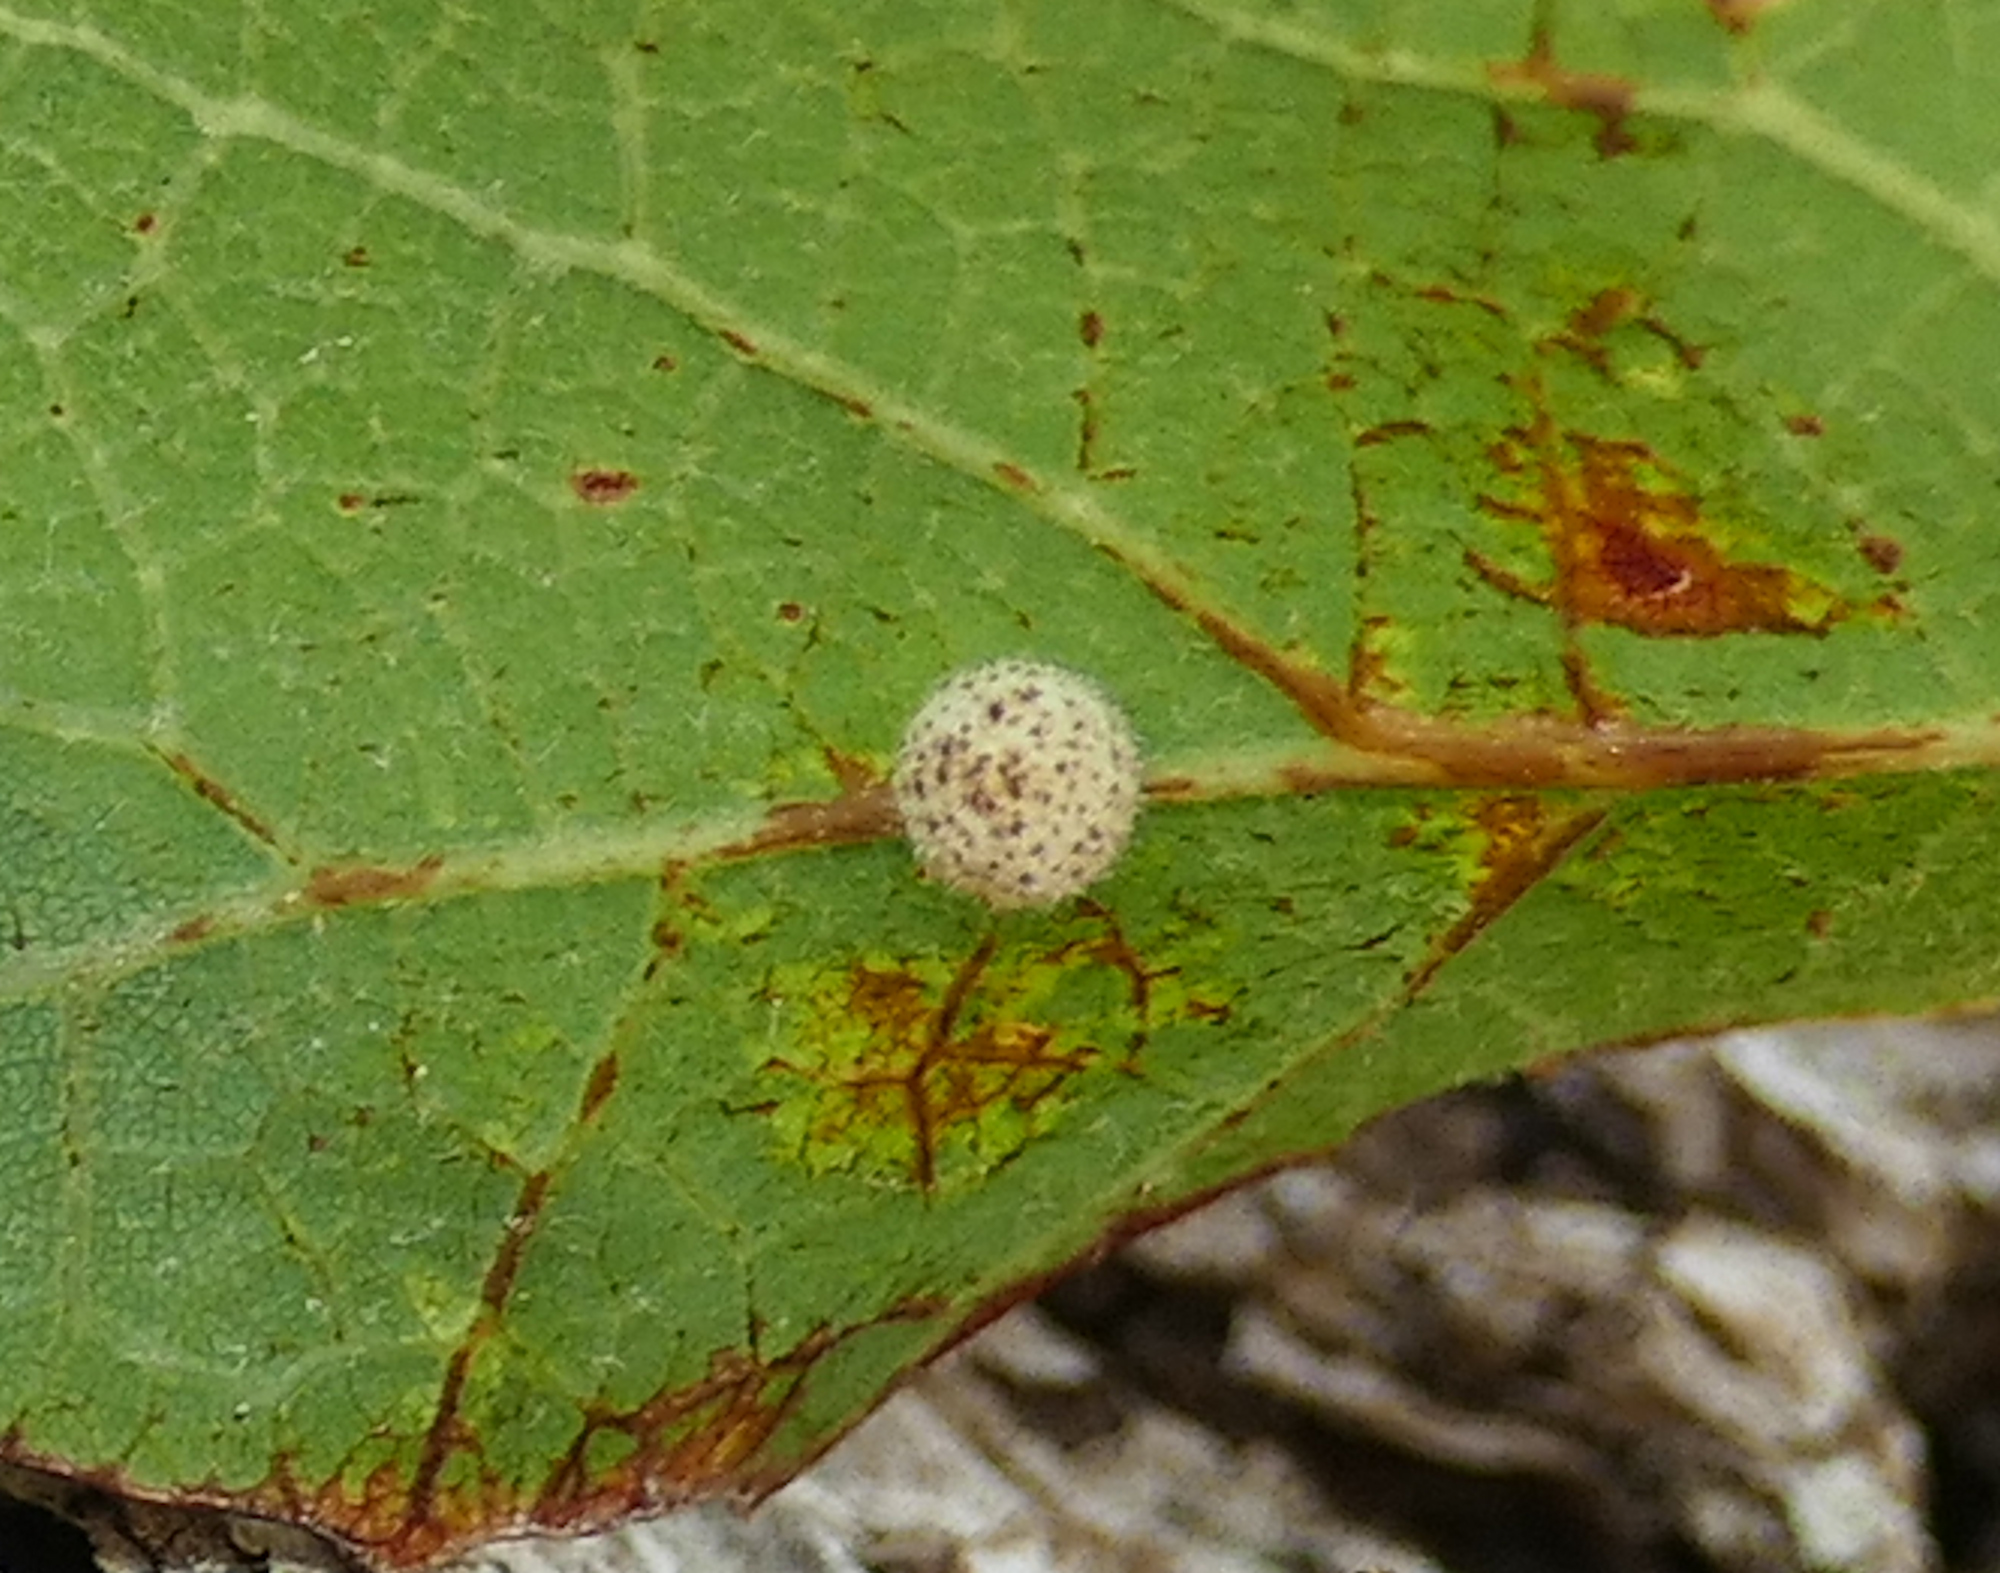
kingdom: Animalia
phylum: Arthropoda
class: Insecta
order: Hymenoptera
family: Cynipidae
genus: Cynips
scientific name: Cynips Antron tomkursari
